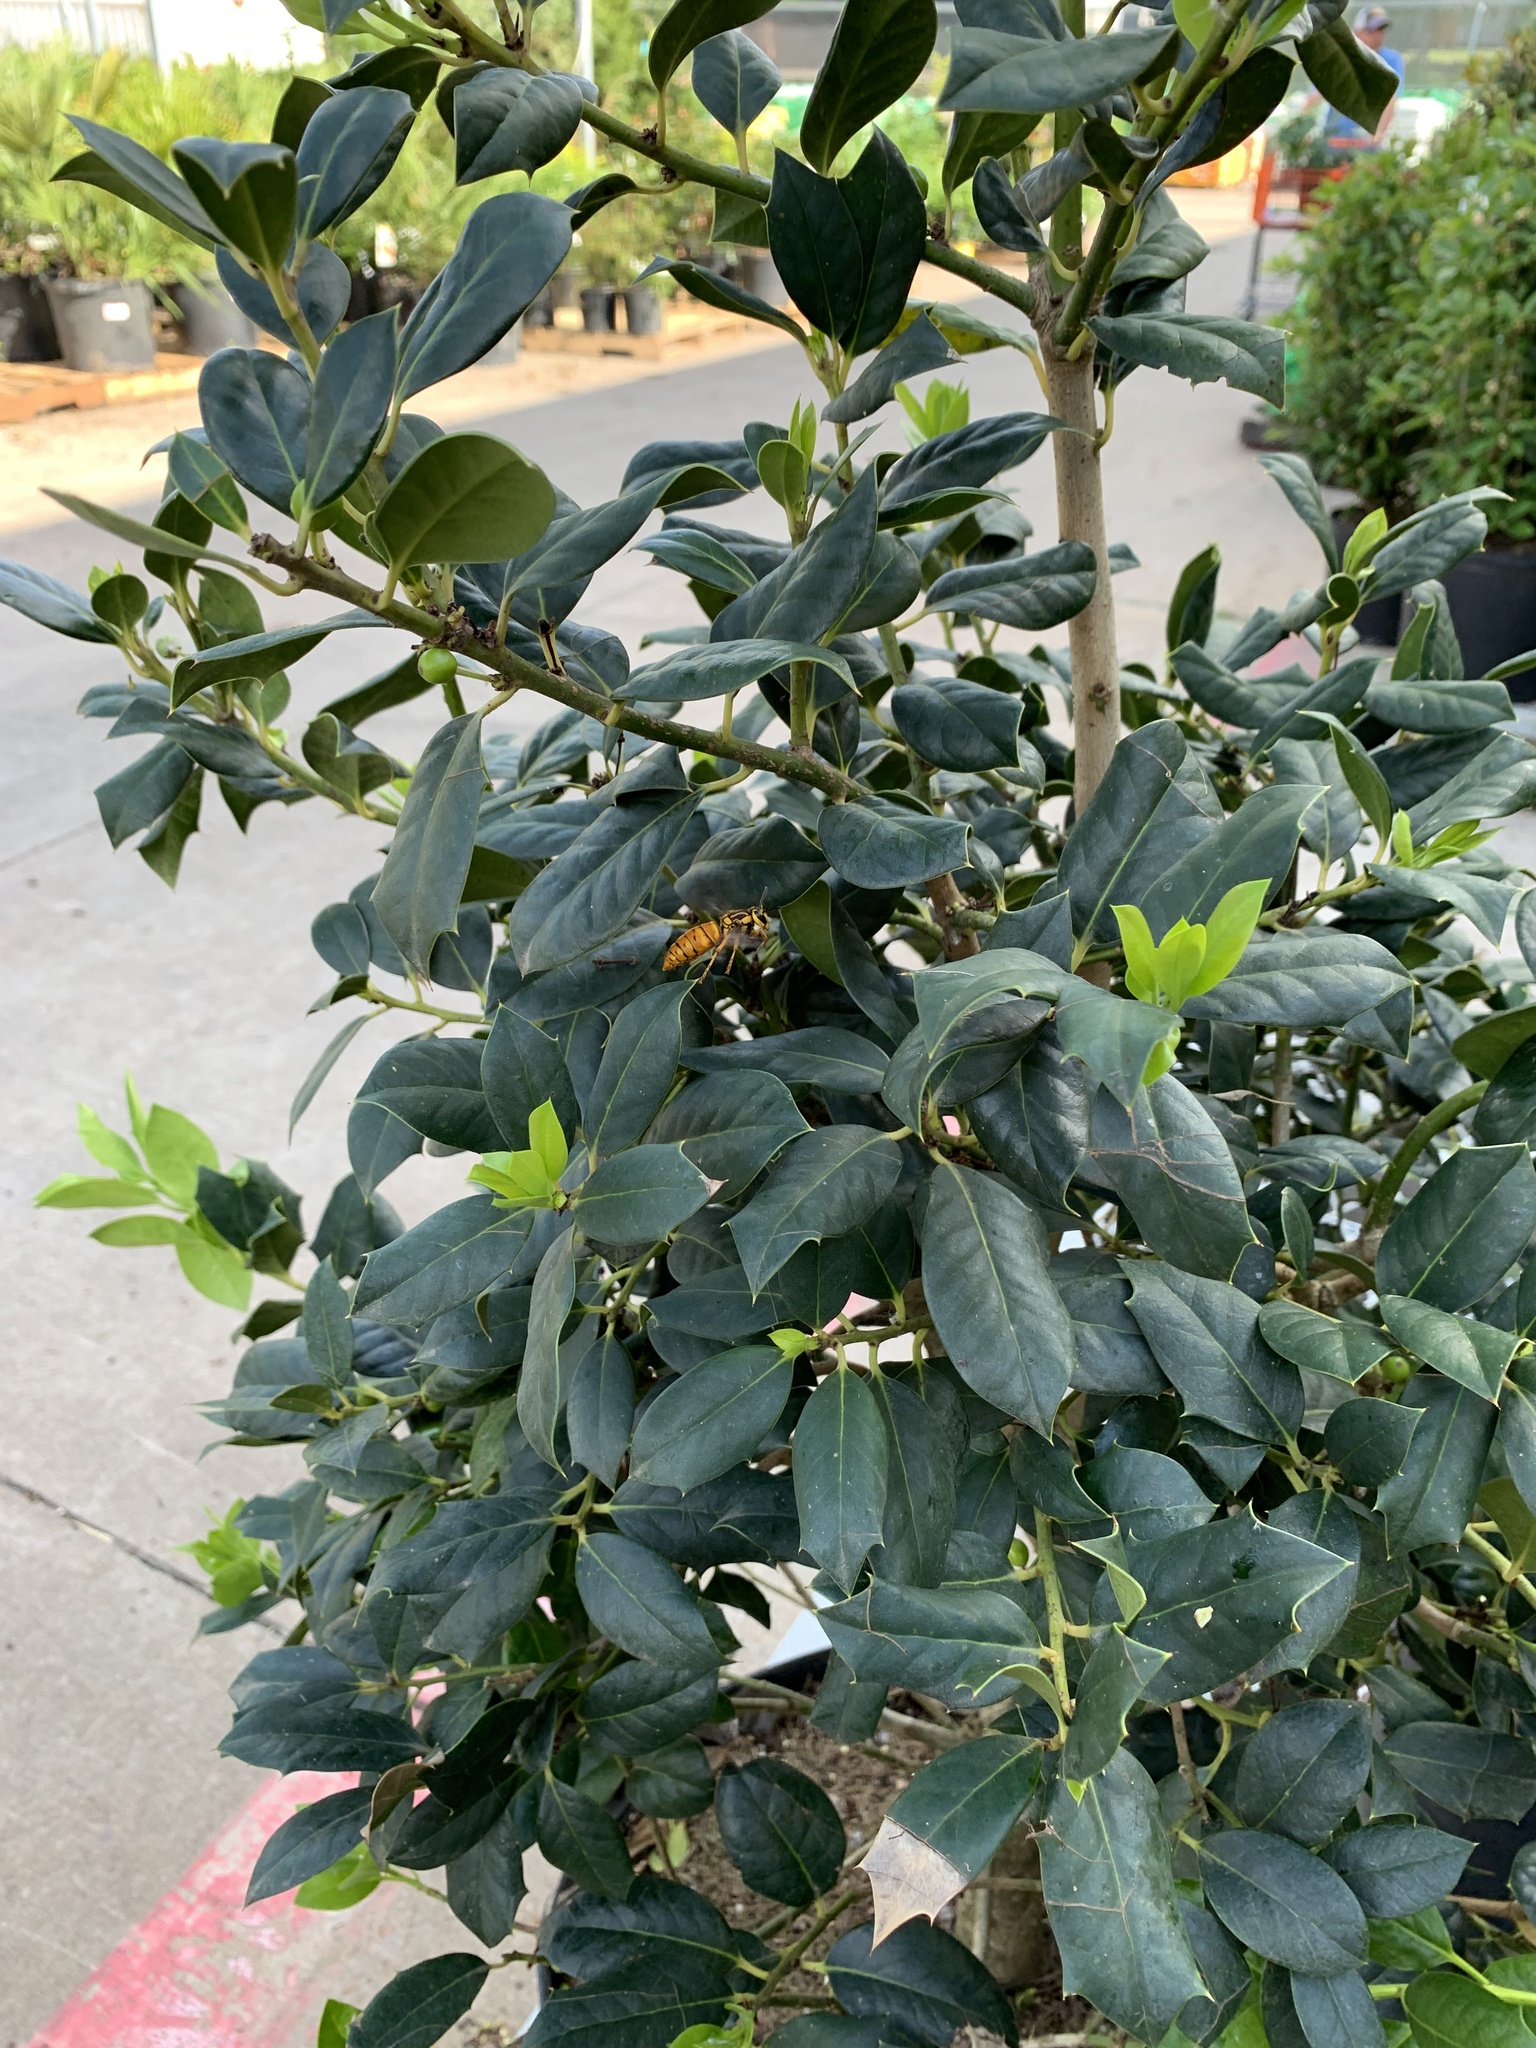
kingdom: Animalia
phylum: Arthropoda
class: Insecta
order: Hymenoptera
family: Vespidae
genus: Vespula
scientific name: Vespula squamosa
